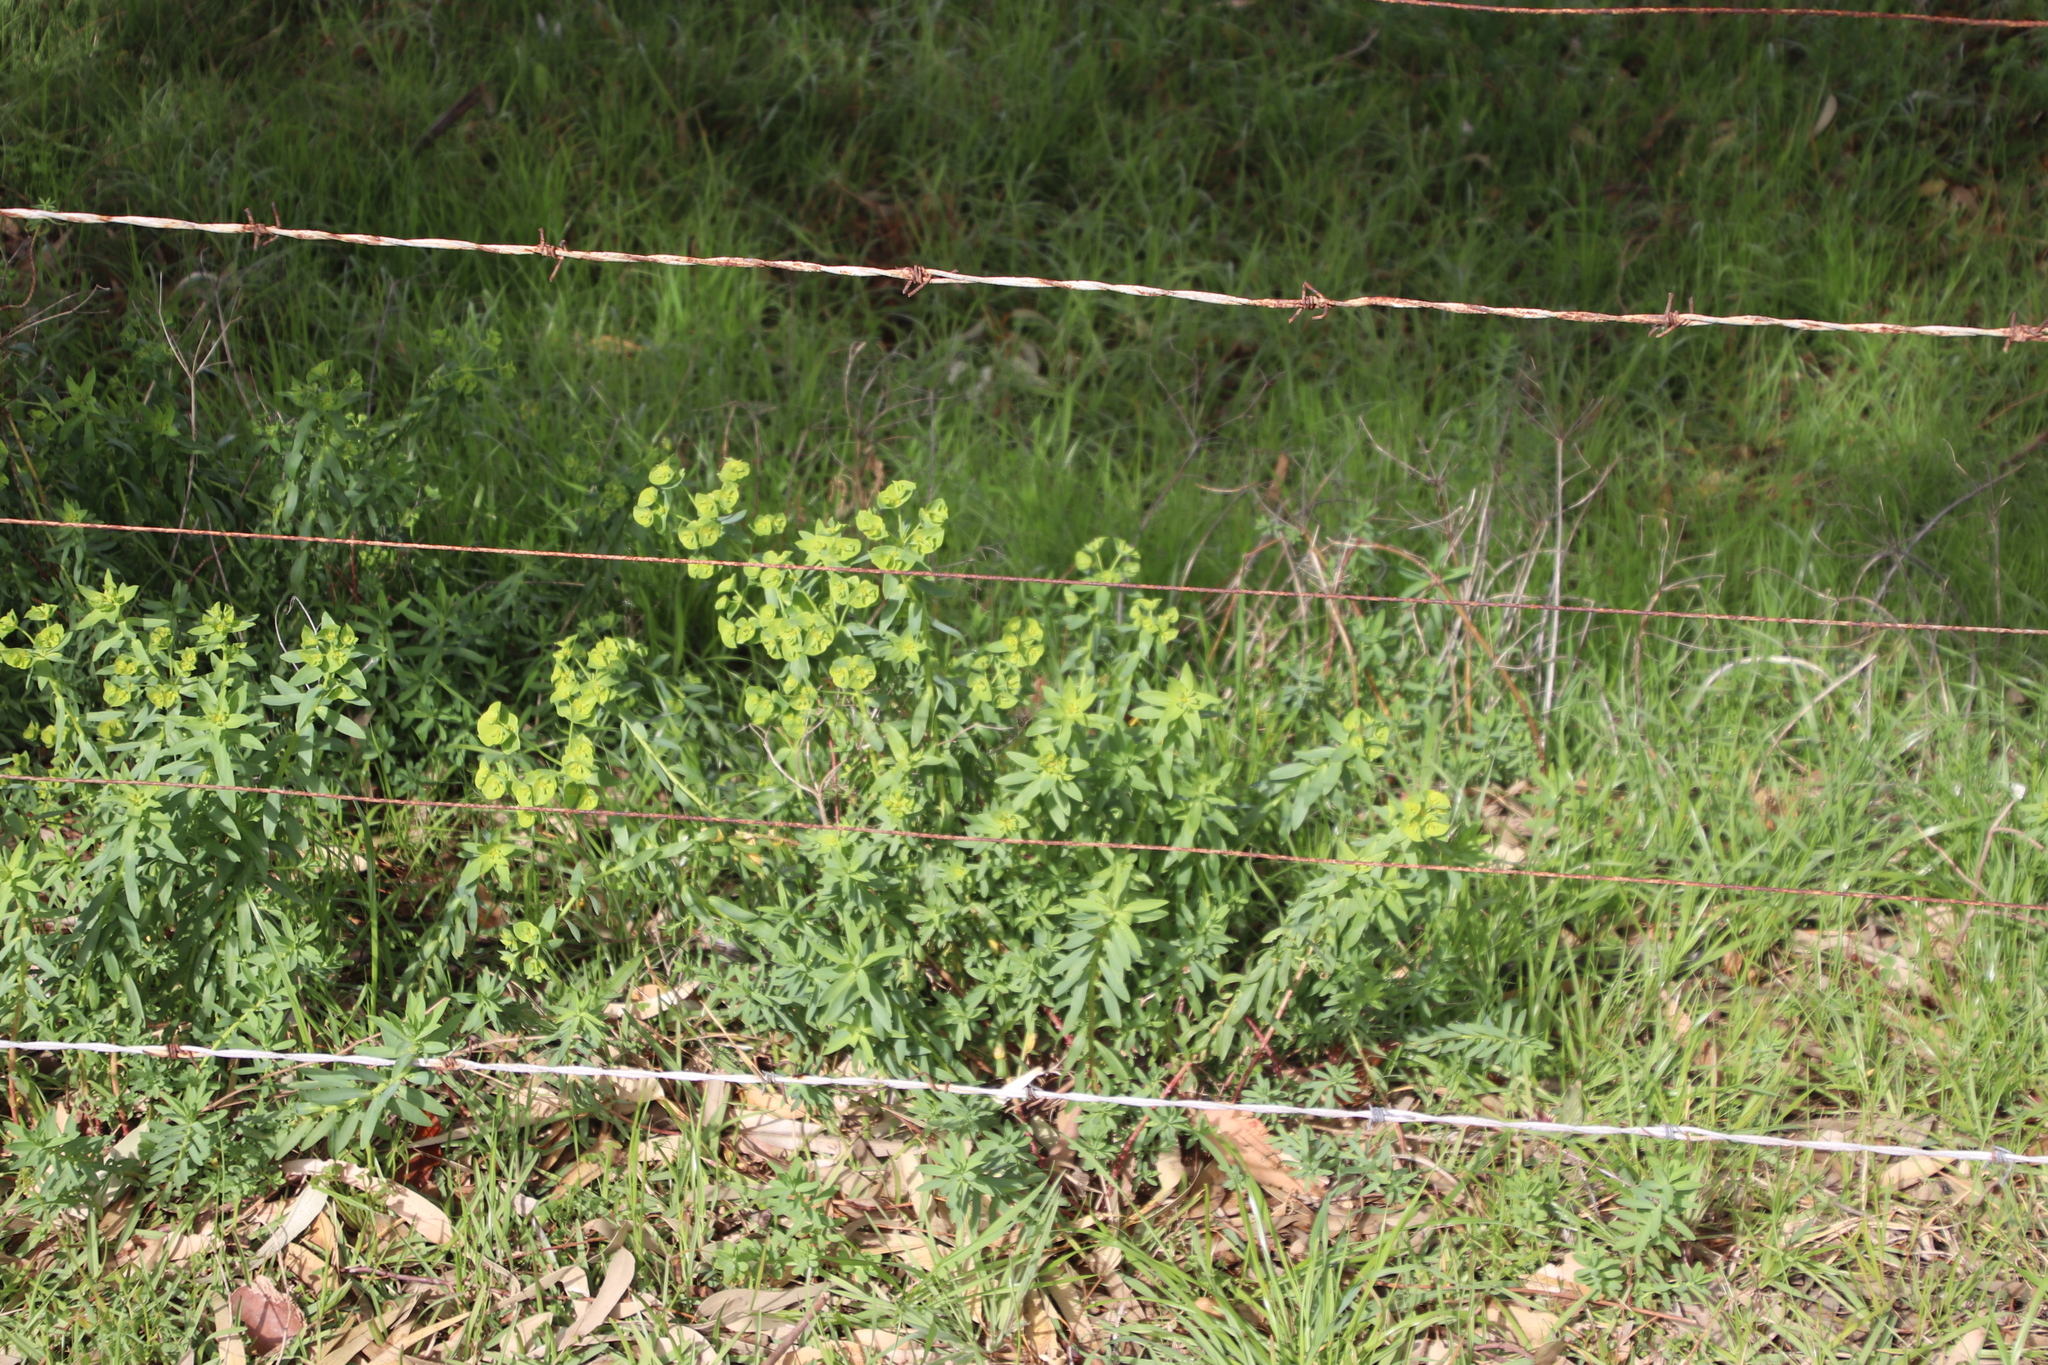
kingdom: Plantae
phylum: Tracheophyta
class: Magnoliopsida
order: Malpighiales
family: Euphorbiaceae
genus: Euphorbia
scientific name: Euphorbia terracina
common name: Geraldton carnation weed
